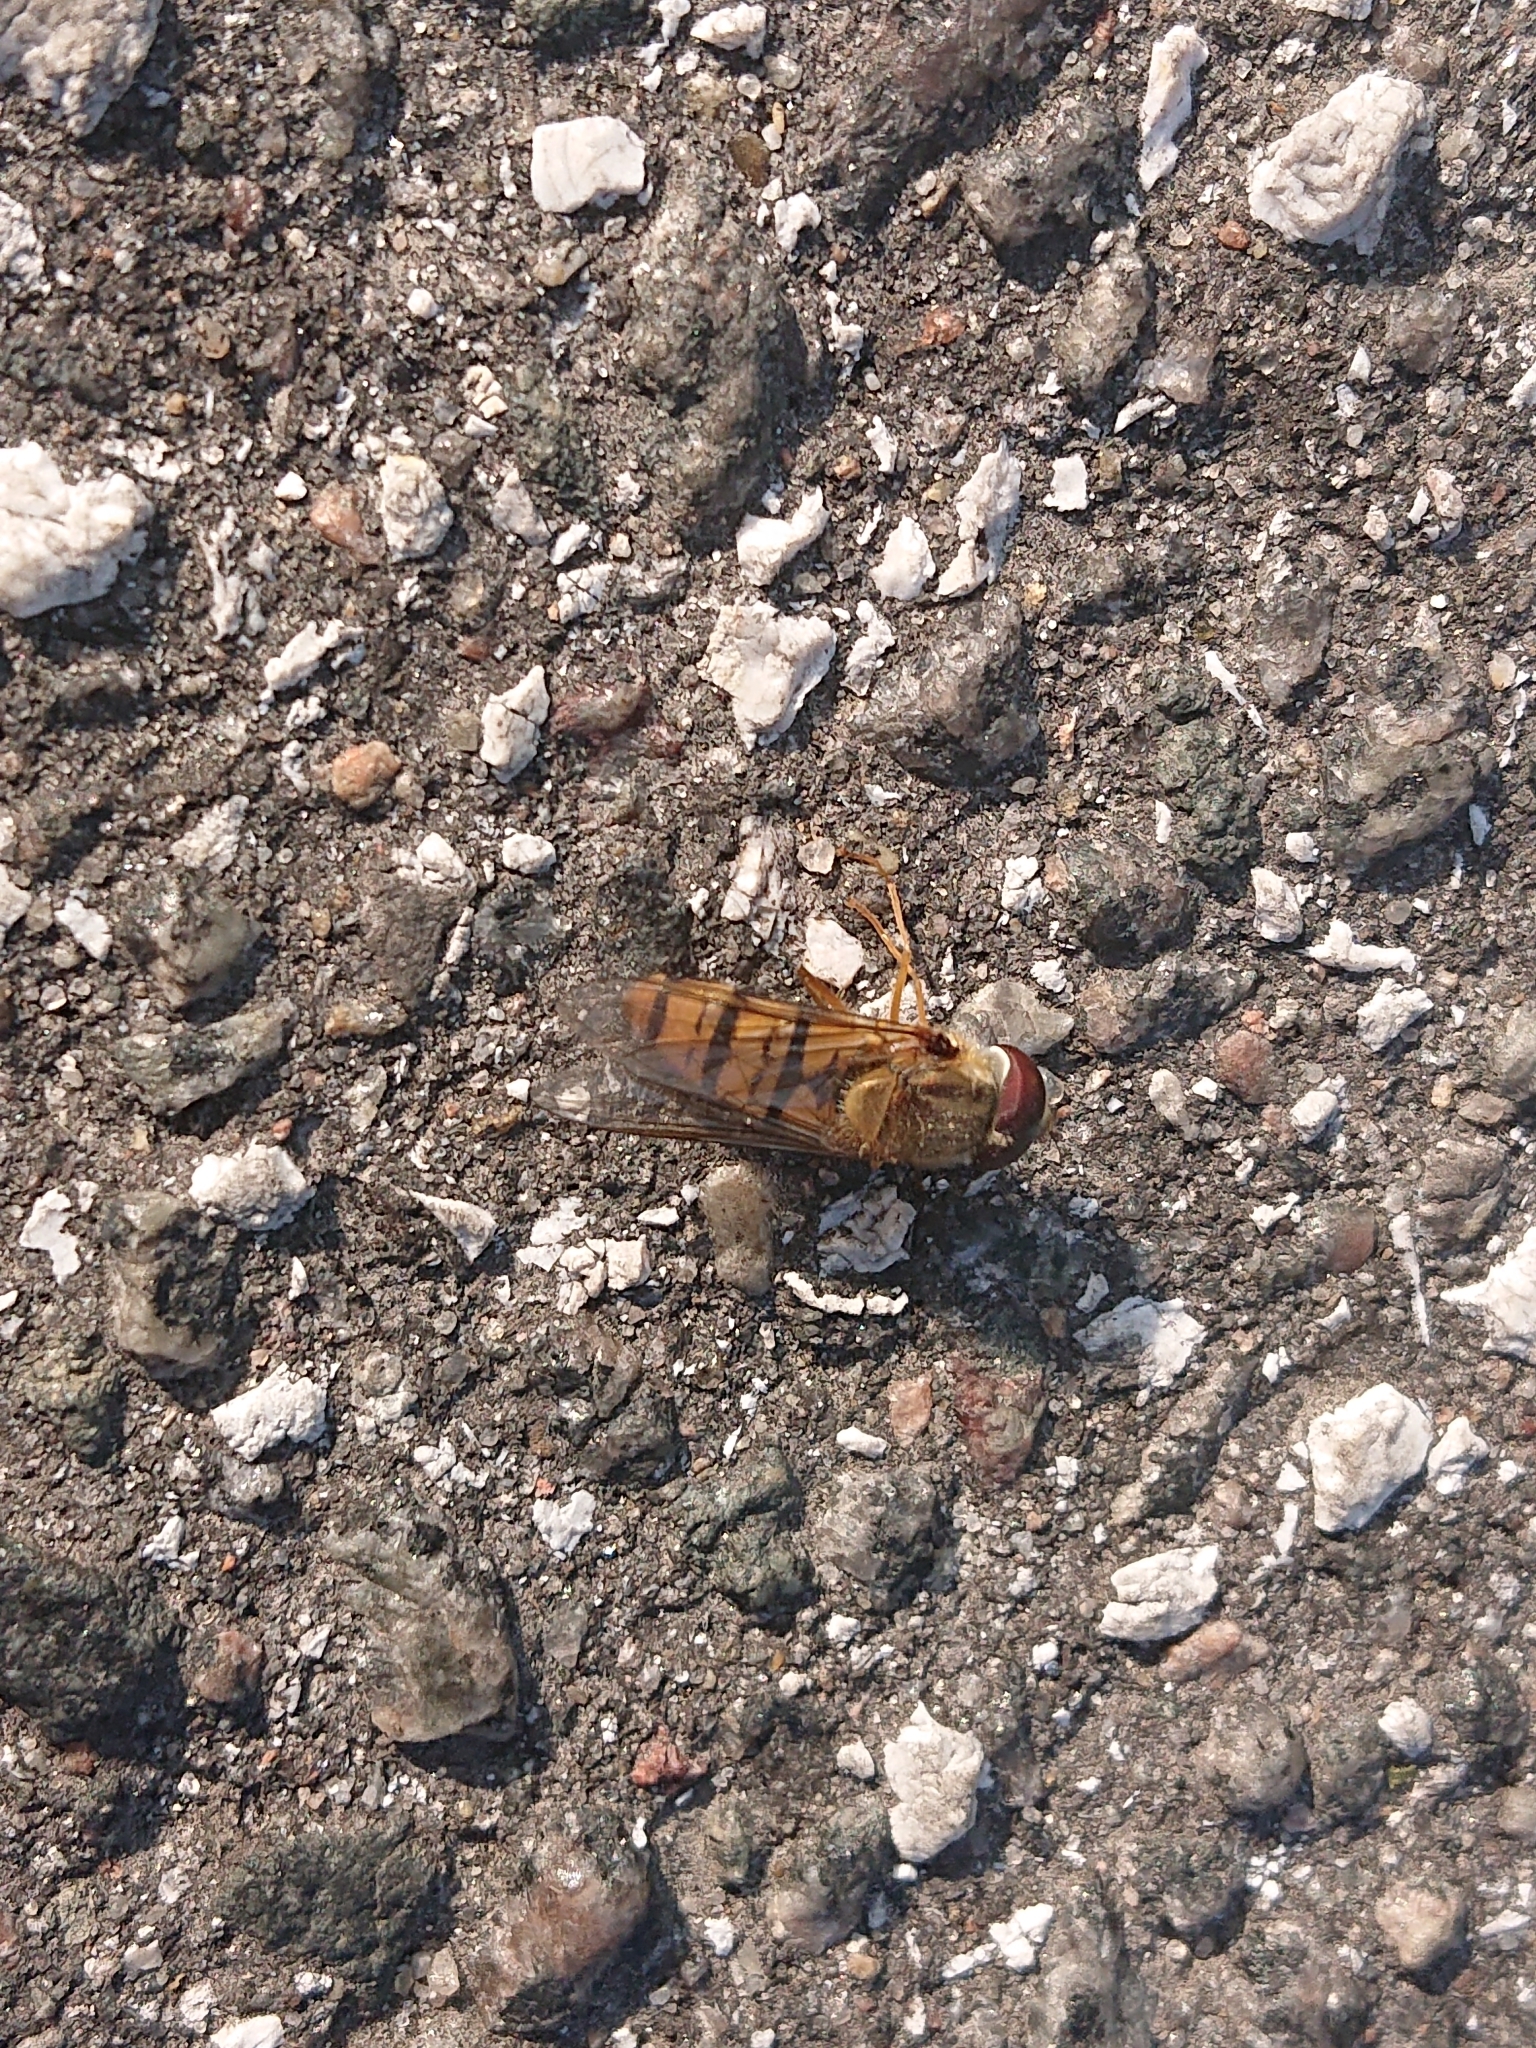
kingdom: Animalia
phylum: Arthropoda
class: Insecta
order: Diptera
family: Syrphidae
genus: Episyrphus
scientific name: Episyrphus balteatus
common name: Marmalade hoverfly
